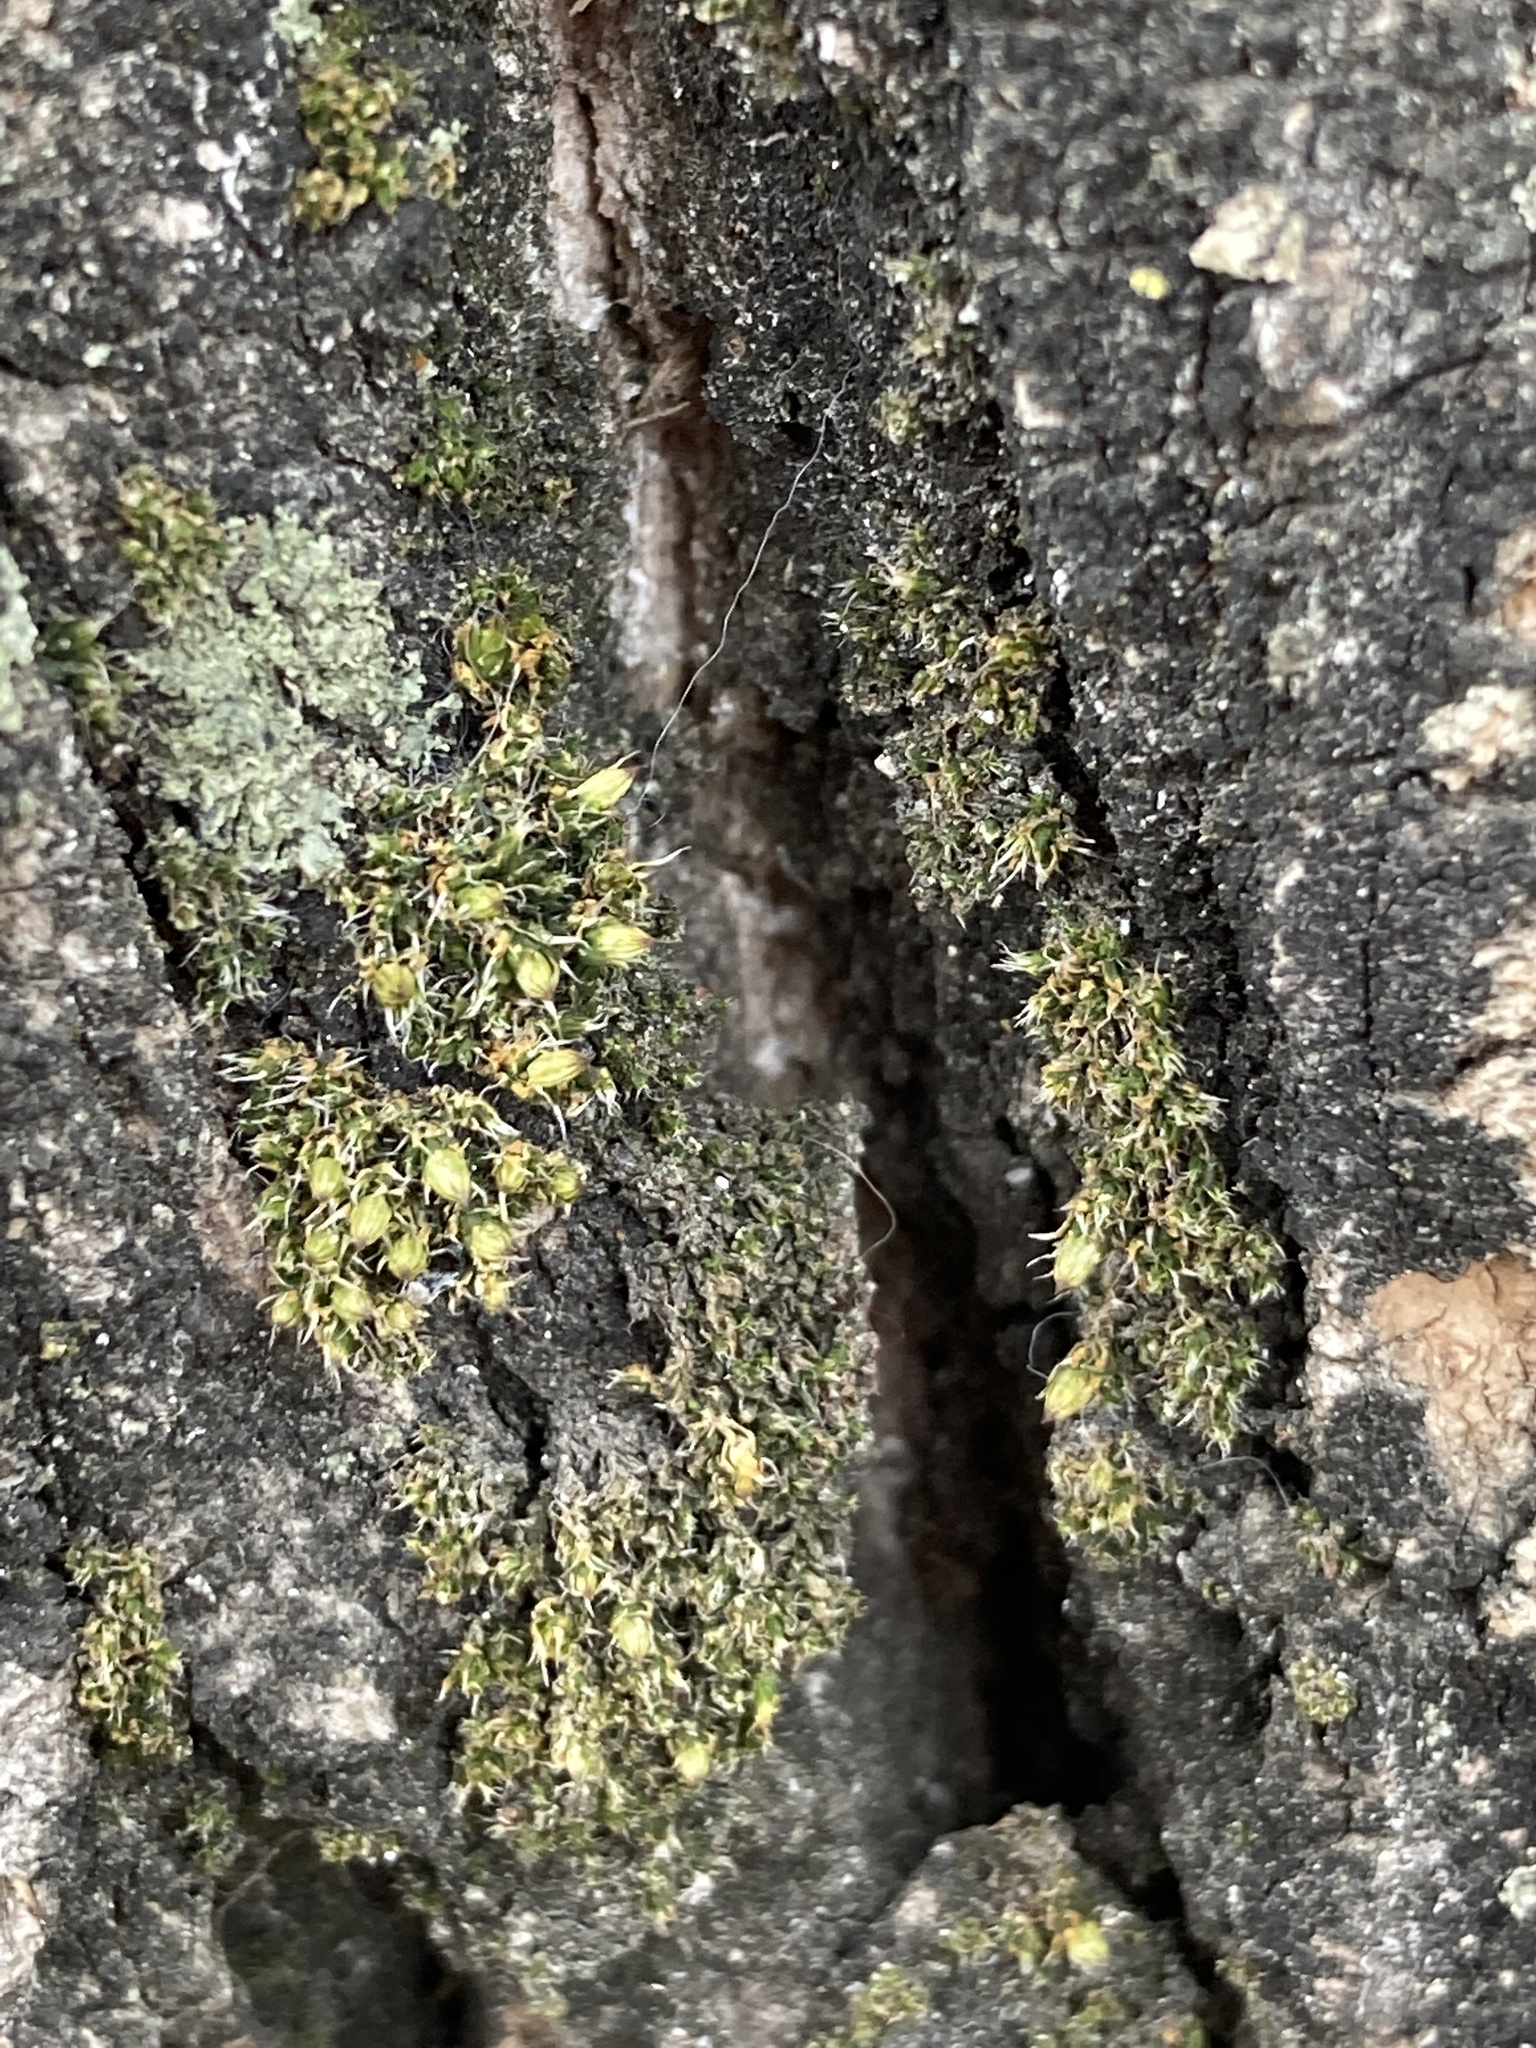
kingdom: Plantae
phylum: Bryophyta
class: Bryopsida
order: Orthotrichales
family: Orthotrichaceae
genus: Orthotrichum
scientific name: Orthotrichum diaphanum
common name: White-tipped bristle-moss
